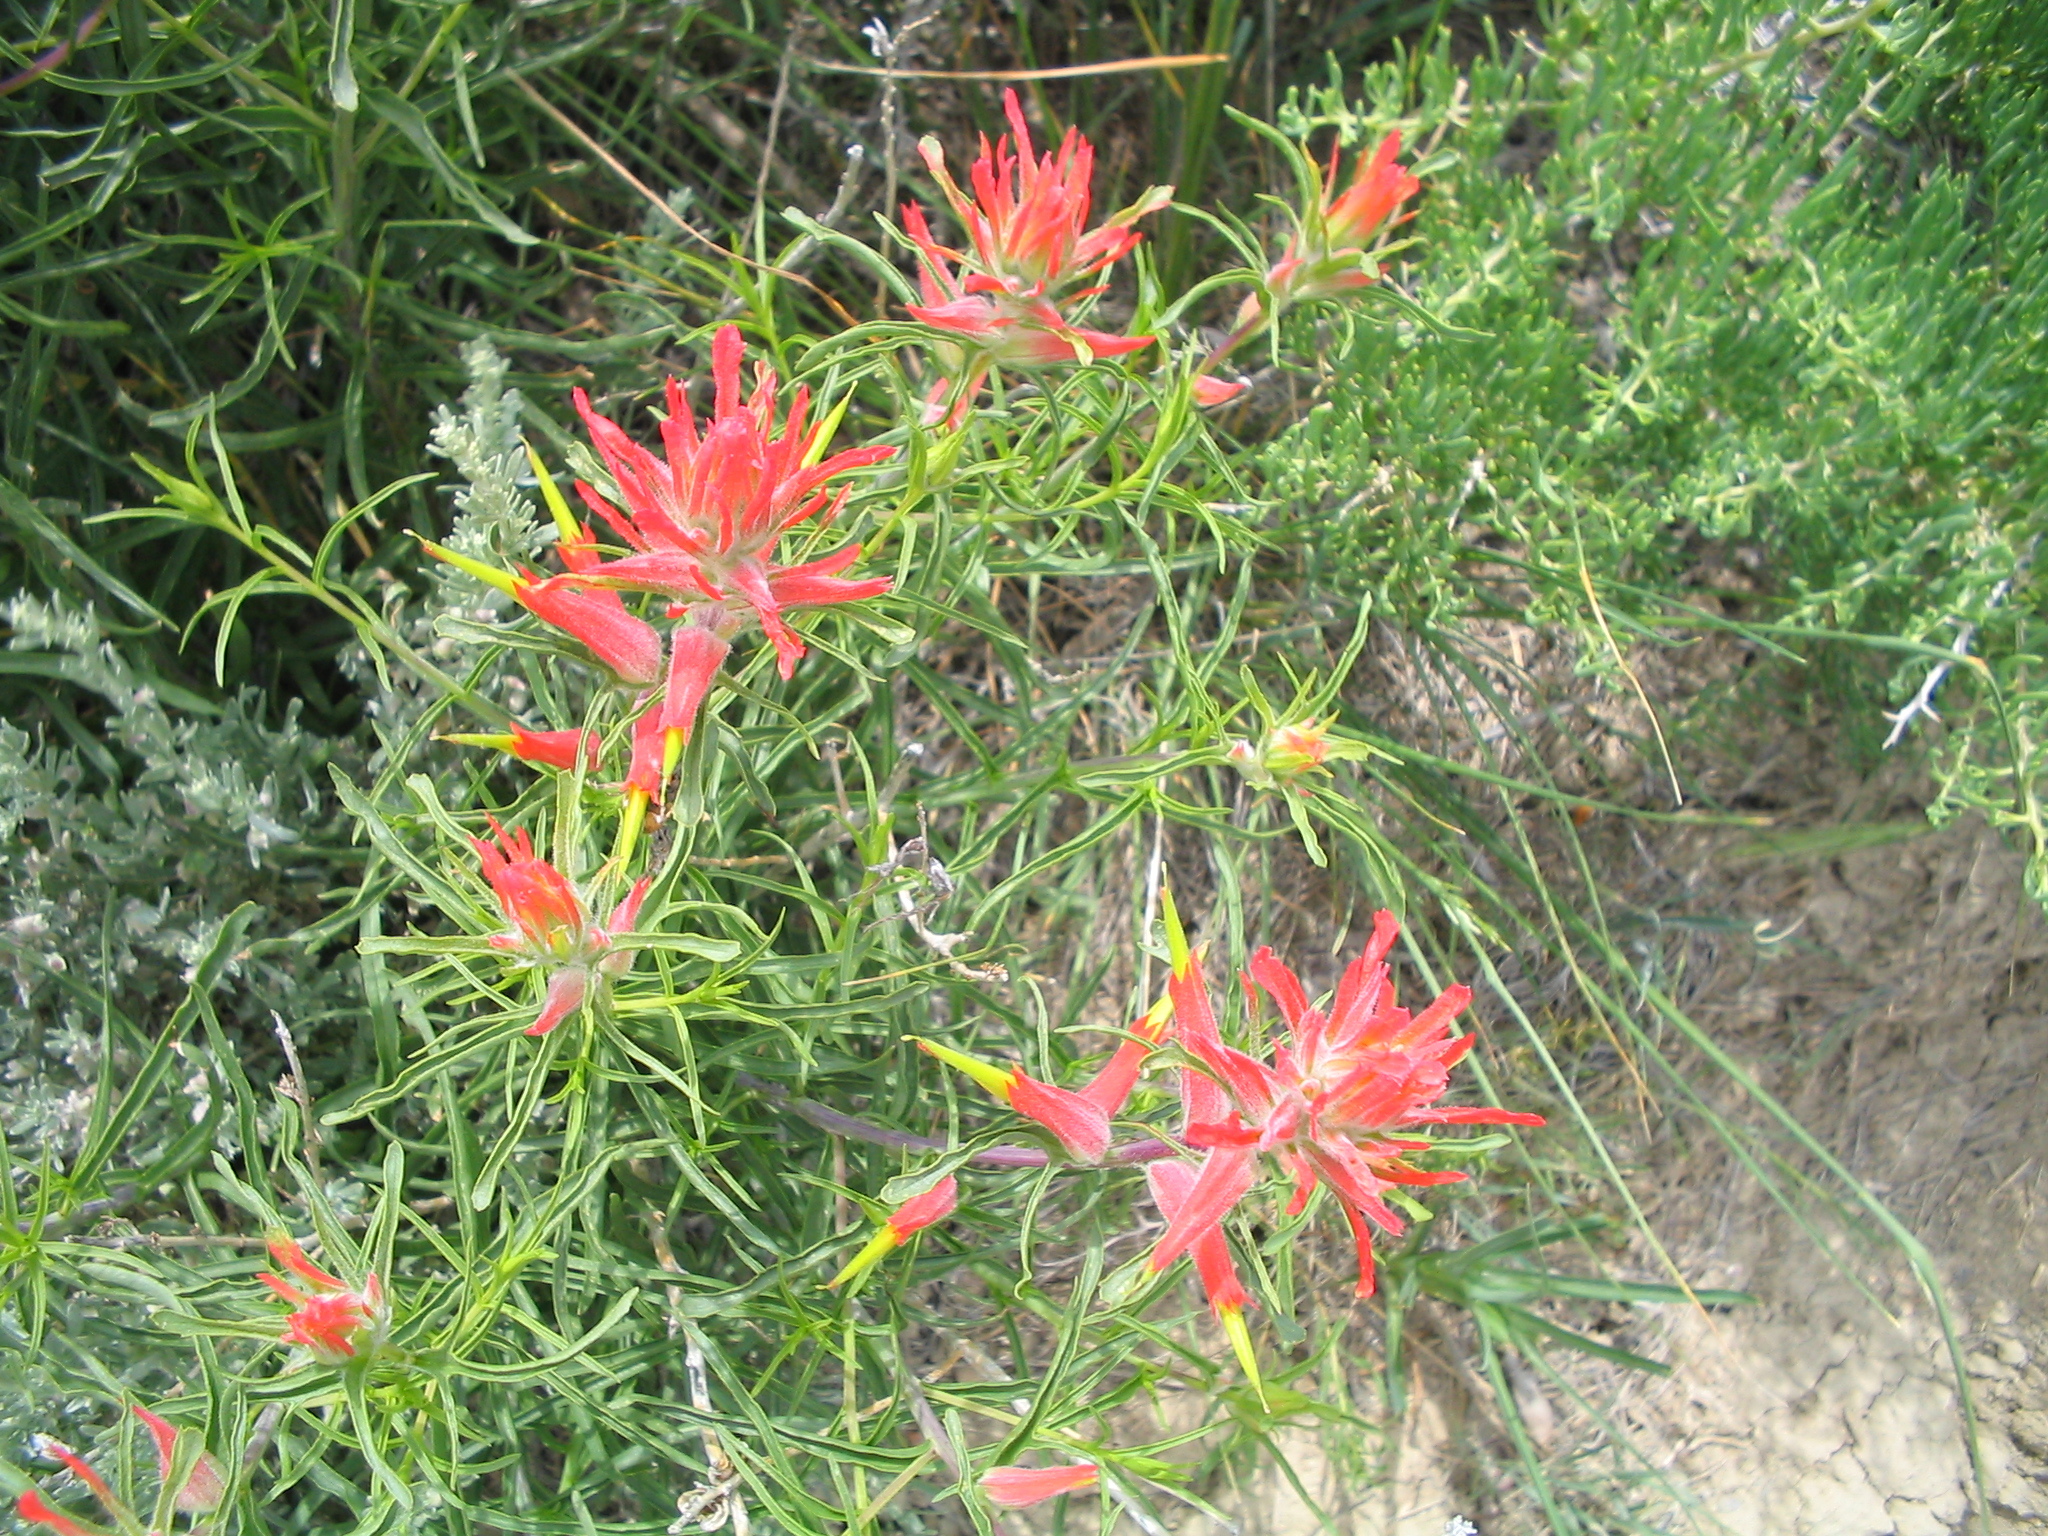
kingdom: Plantae
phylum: Tracheophyta
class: Magnoliopsida
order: Lamiales
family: Orobanchaceae
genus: Castilleja
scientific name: Castilleja linariifolia
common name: Wyoming paintbrush
